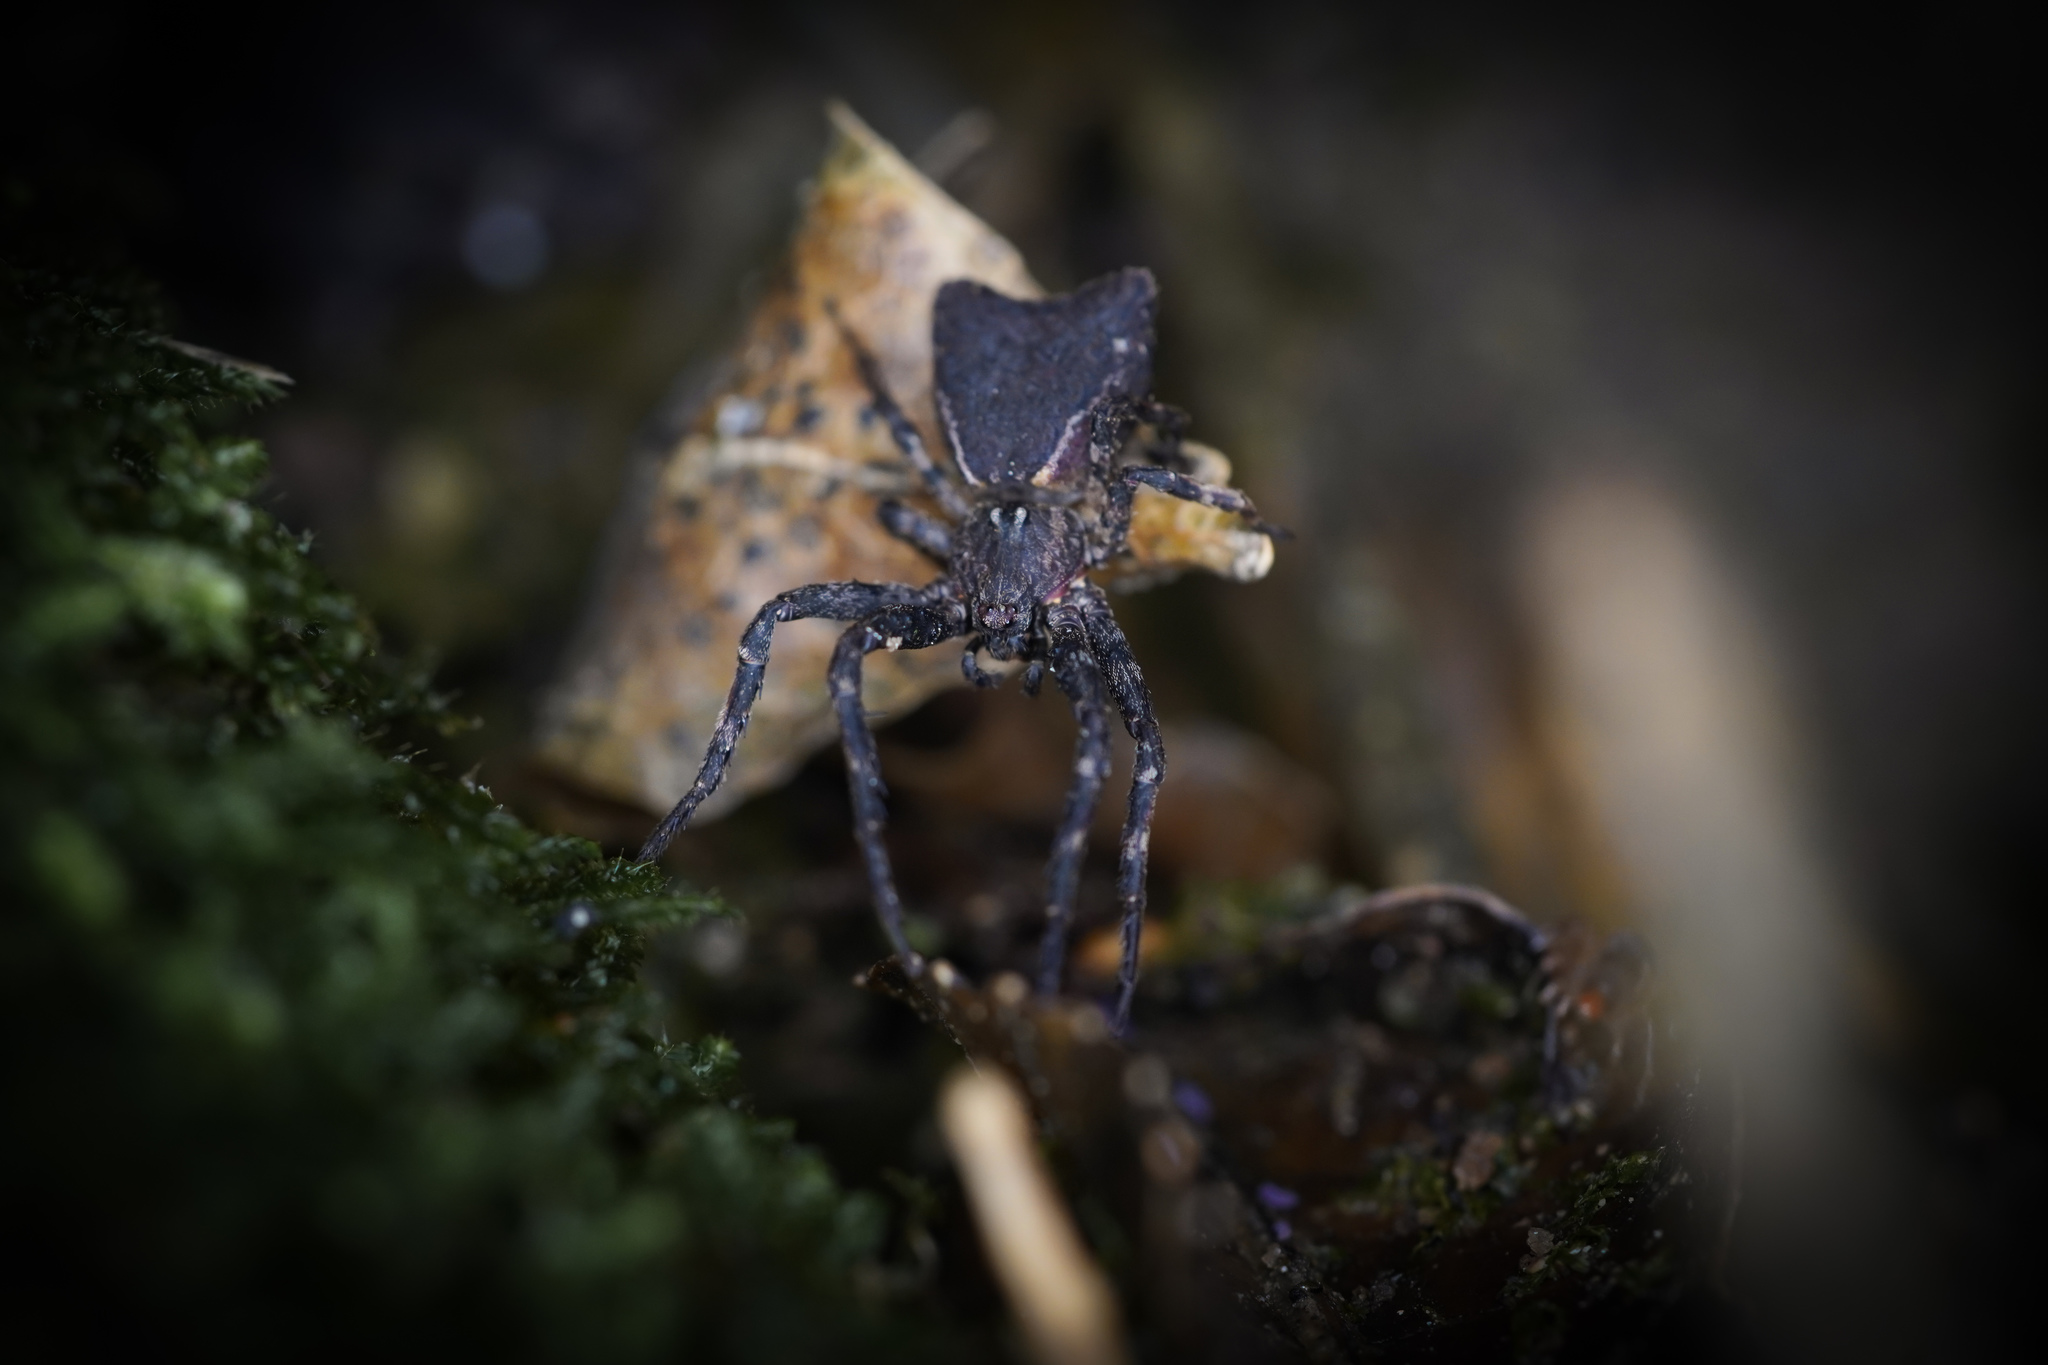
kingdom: Animalia
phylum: Arthropoda
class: Arachnida
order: Araneae
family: Thomisidae
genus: Sidymella
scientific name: Sidymella angularis
